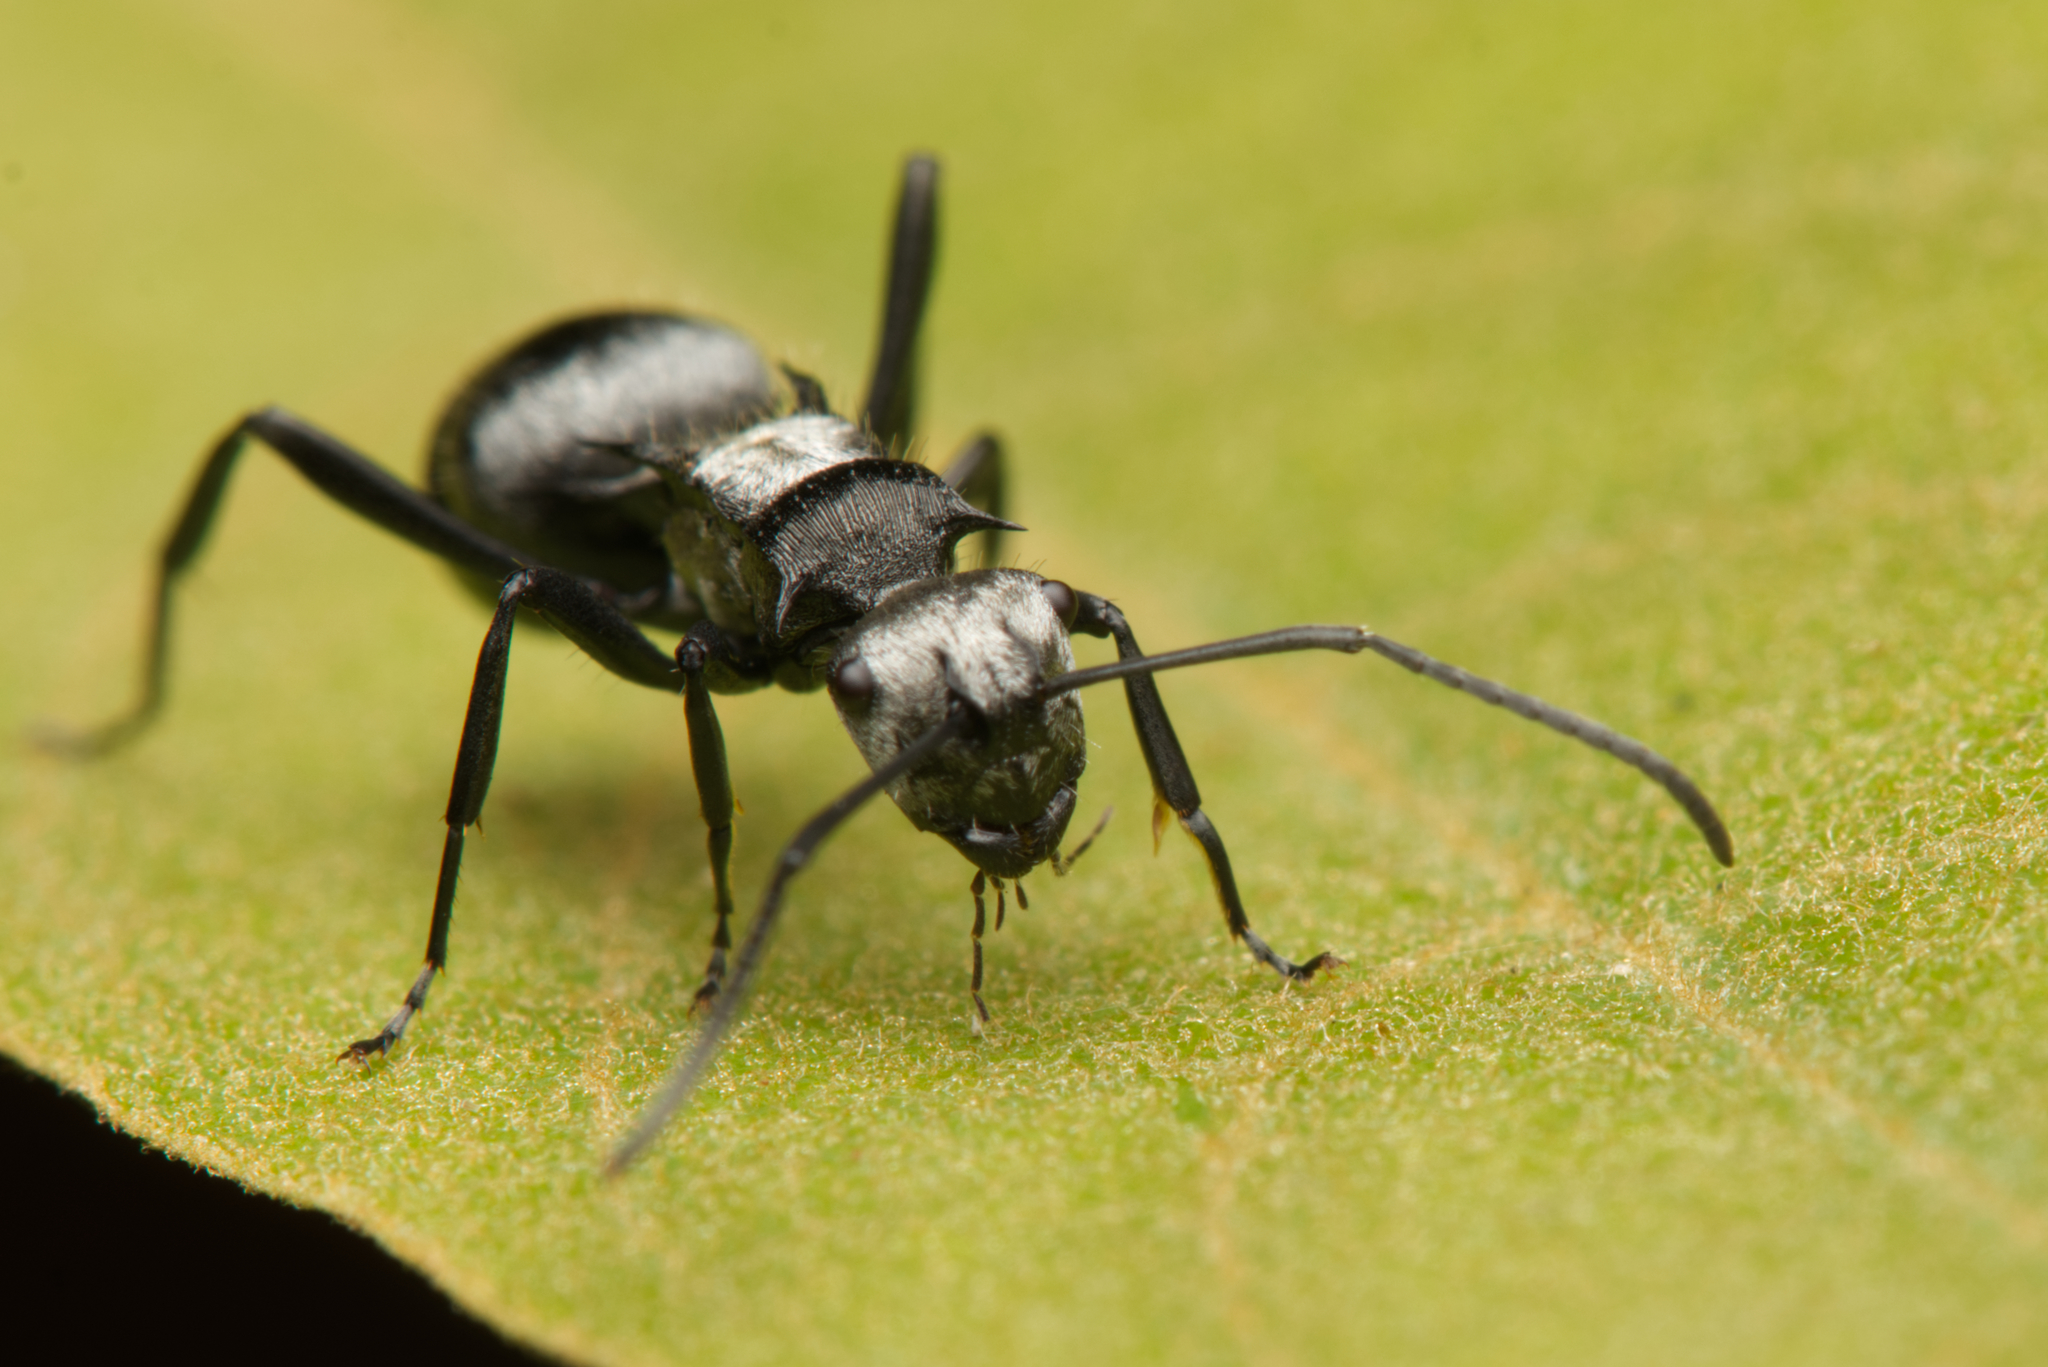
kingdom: Animalia
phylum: Arthropoda
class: Insecta
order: Hymenoptera
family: Formicidae
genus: Polyrhachis
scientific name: Polyrhachis daemeli
